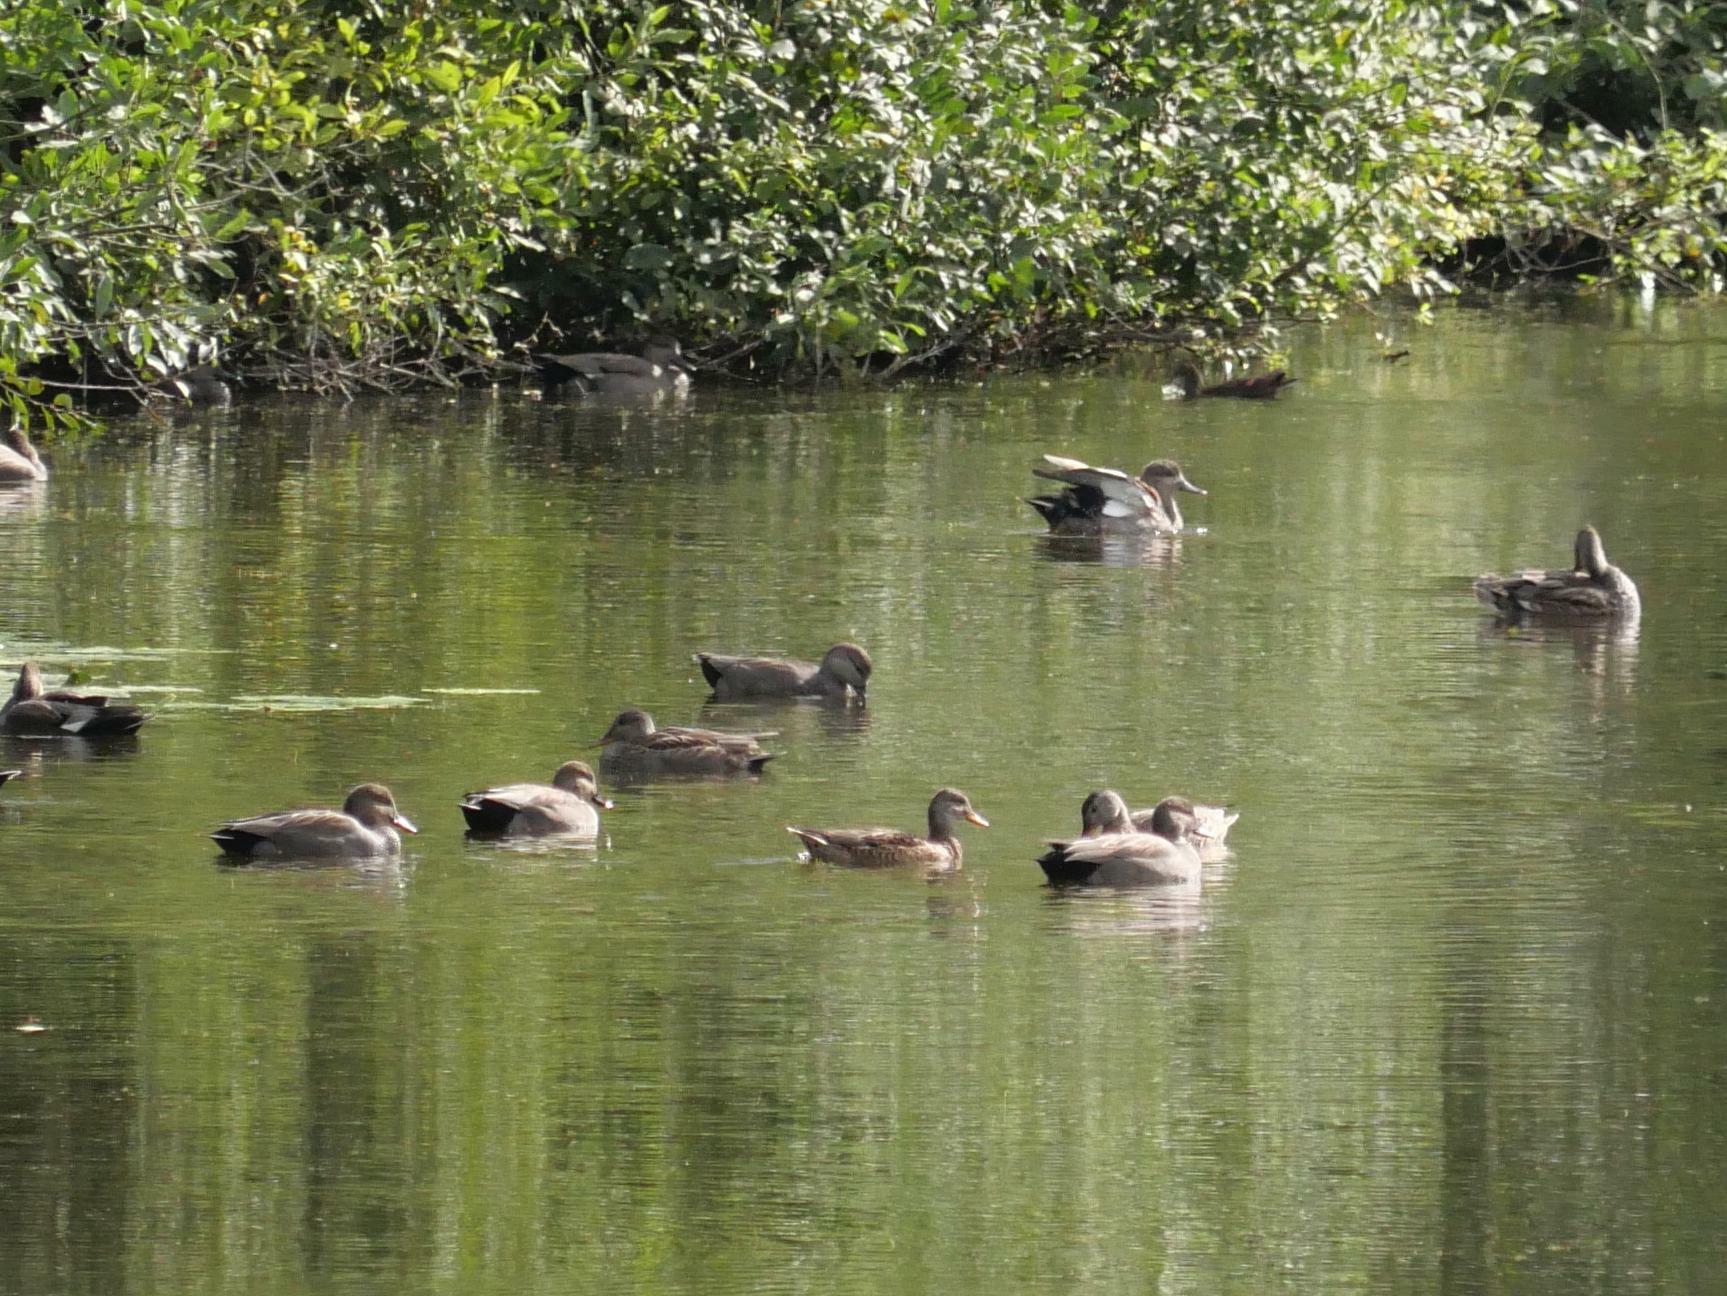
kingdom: Animalia
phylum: Chordata
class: Aves
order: Anseriformes
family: Anatidae
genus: Mareca
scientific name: Mareca strepera
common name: Gadwall
